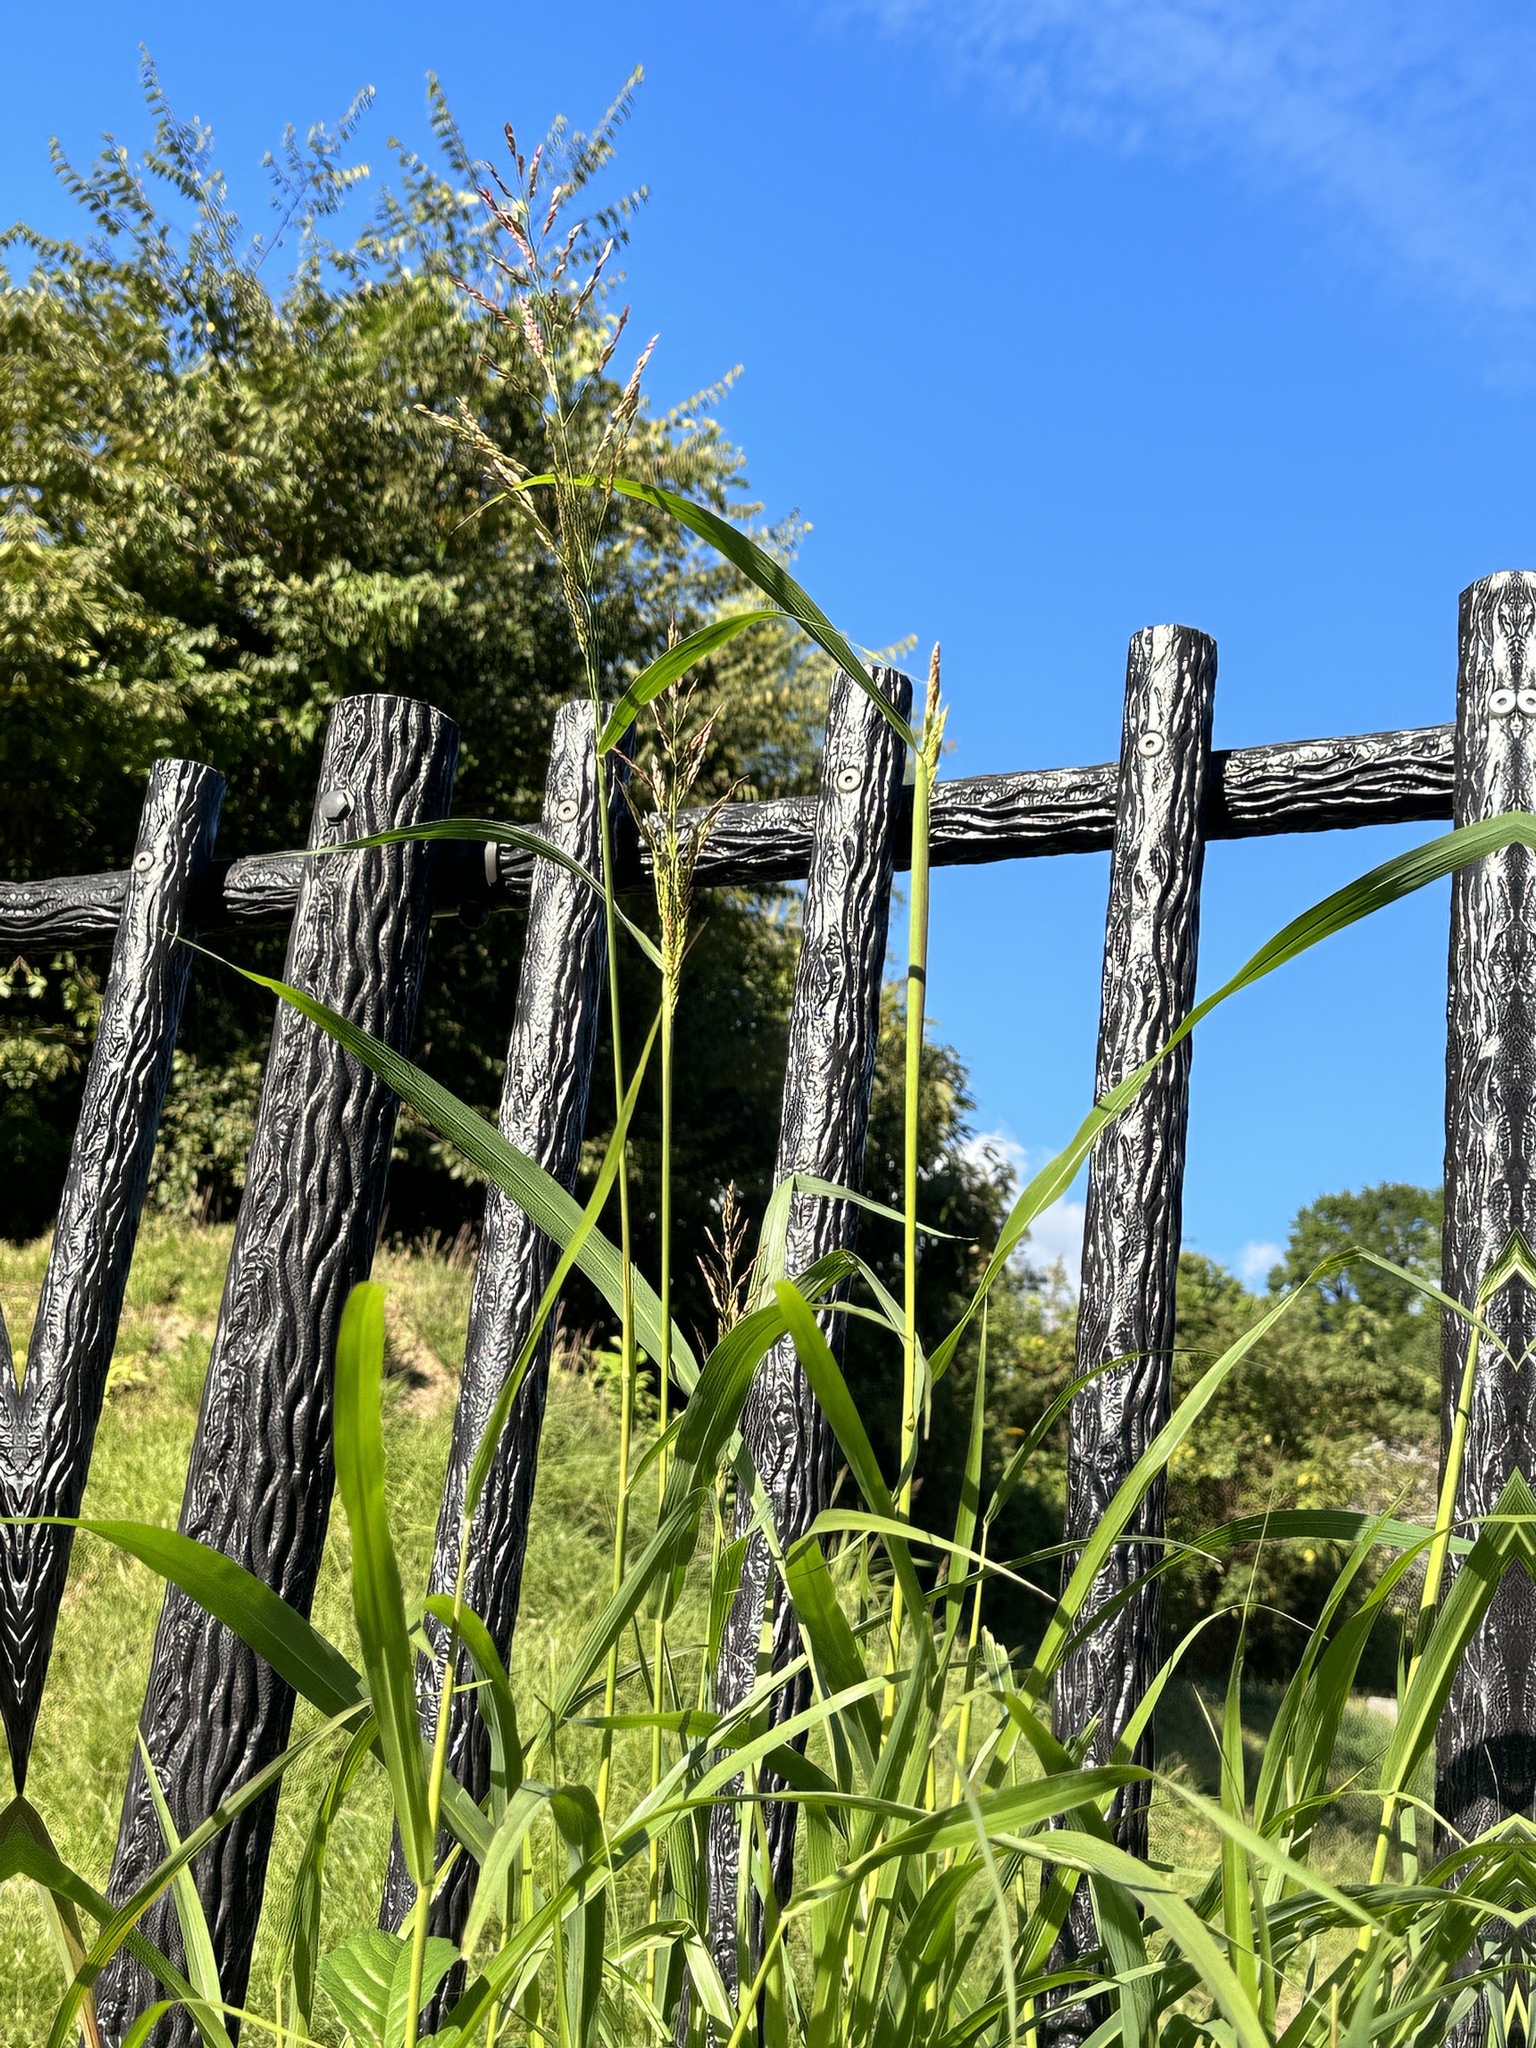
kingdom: Plantae
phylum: Tracheophyta
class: Liliopsida
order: Poales
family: Poaceae
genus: Sorghum
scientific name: Sorghum halepense
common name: Johnson-grass
